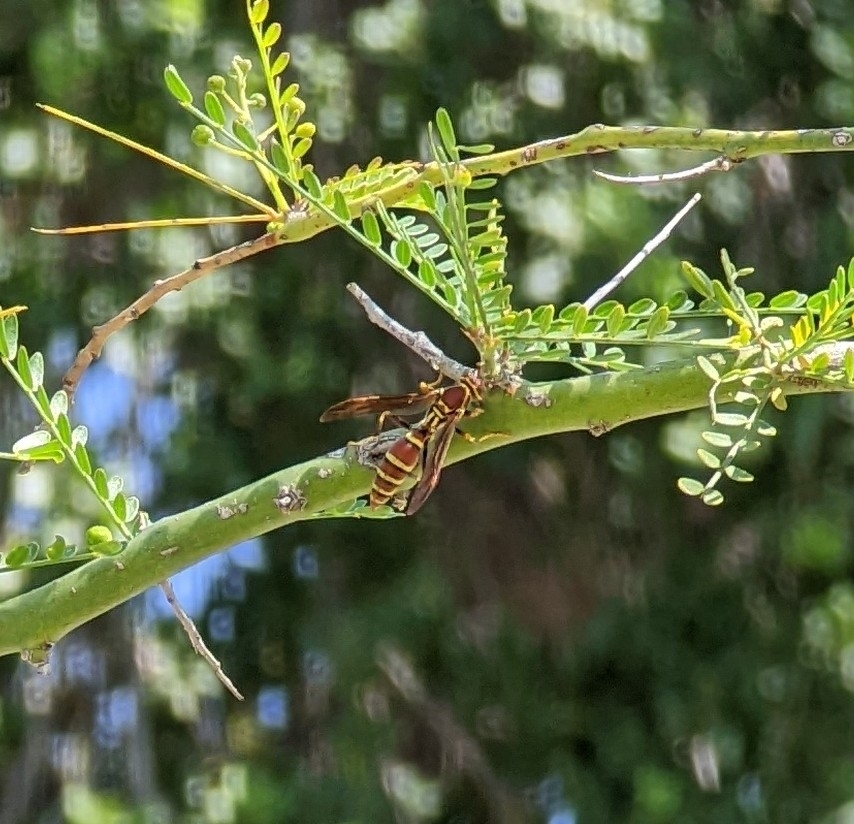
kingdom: Animalia
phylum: Arthropoda
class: Insecta
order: Hymenoptera
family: Eumenidae
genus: Polistes
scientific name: Polistes exclamans
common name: Paper wasp
